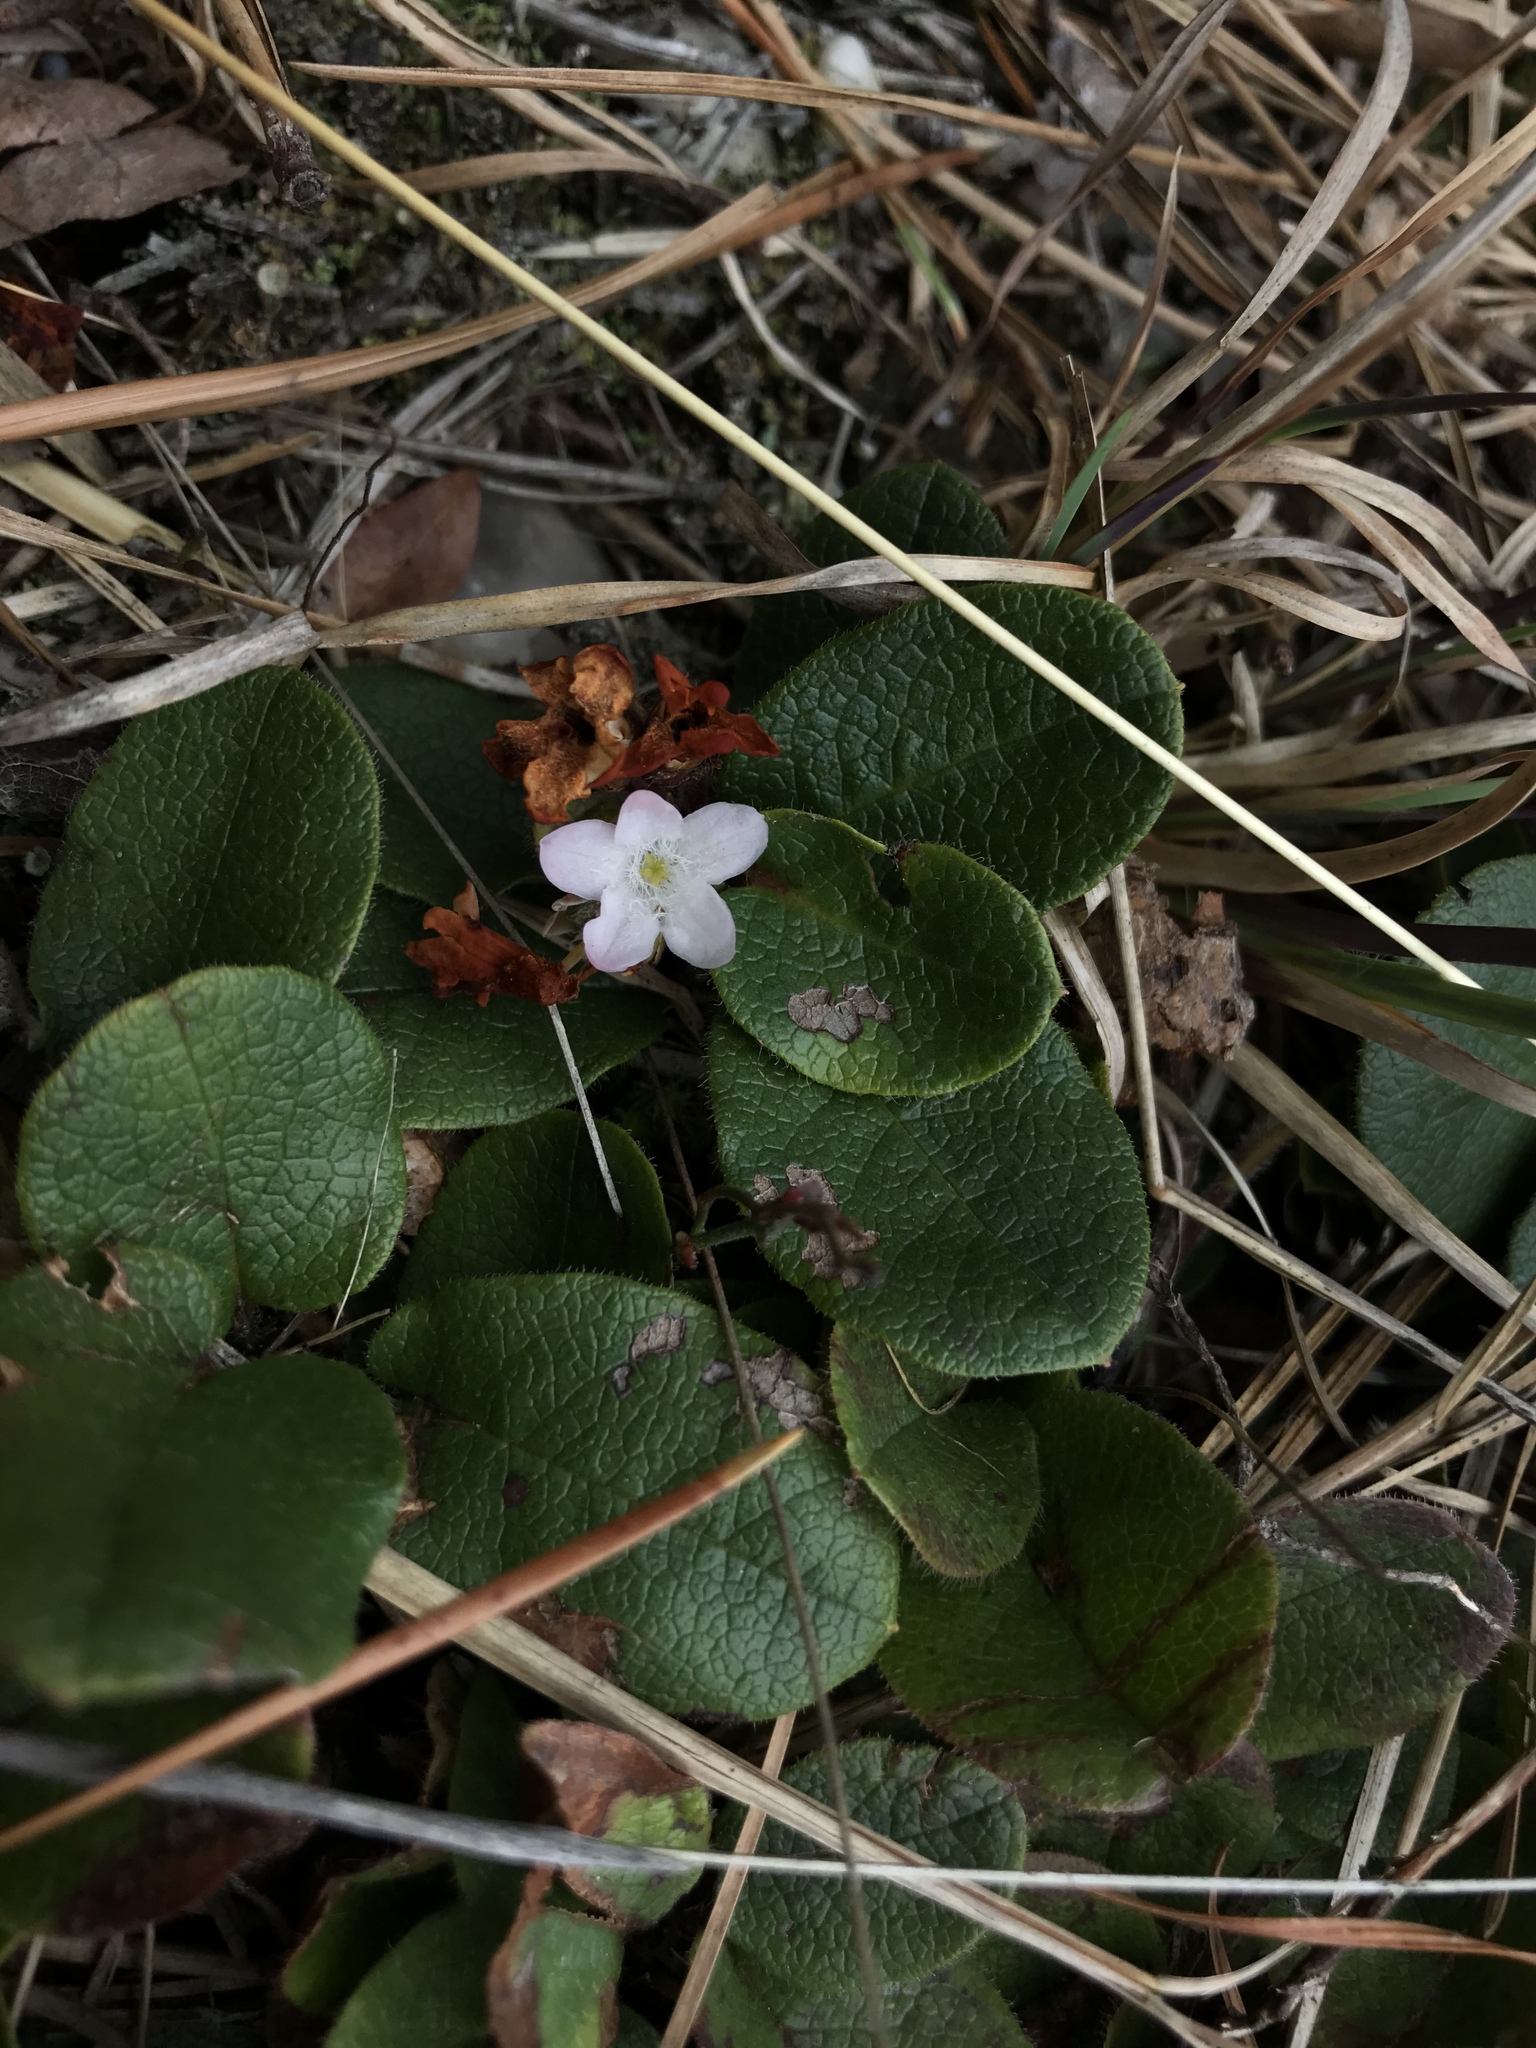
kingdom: Plantae
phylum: Tracheophyta
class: Magnoliopsida
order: Ericales
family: Ericaceae
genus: Epigaea
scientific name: Epigaea repens
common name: Gravelroot
